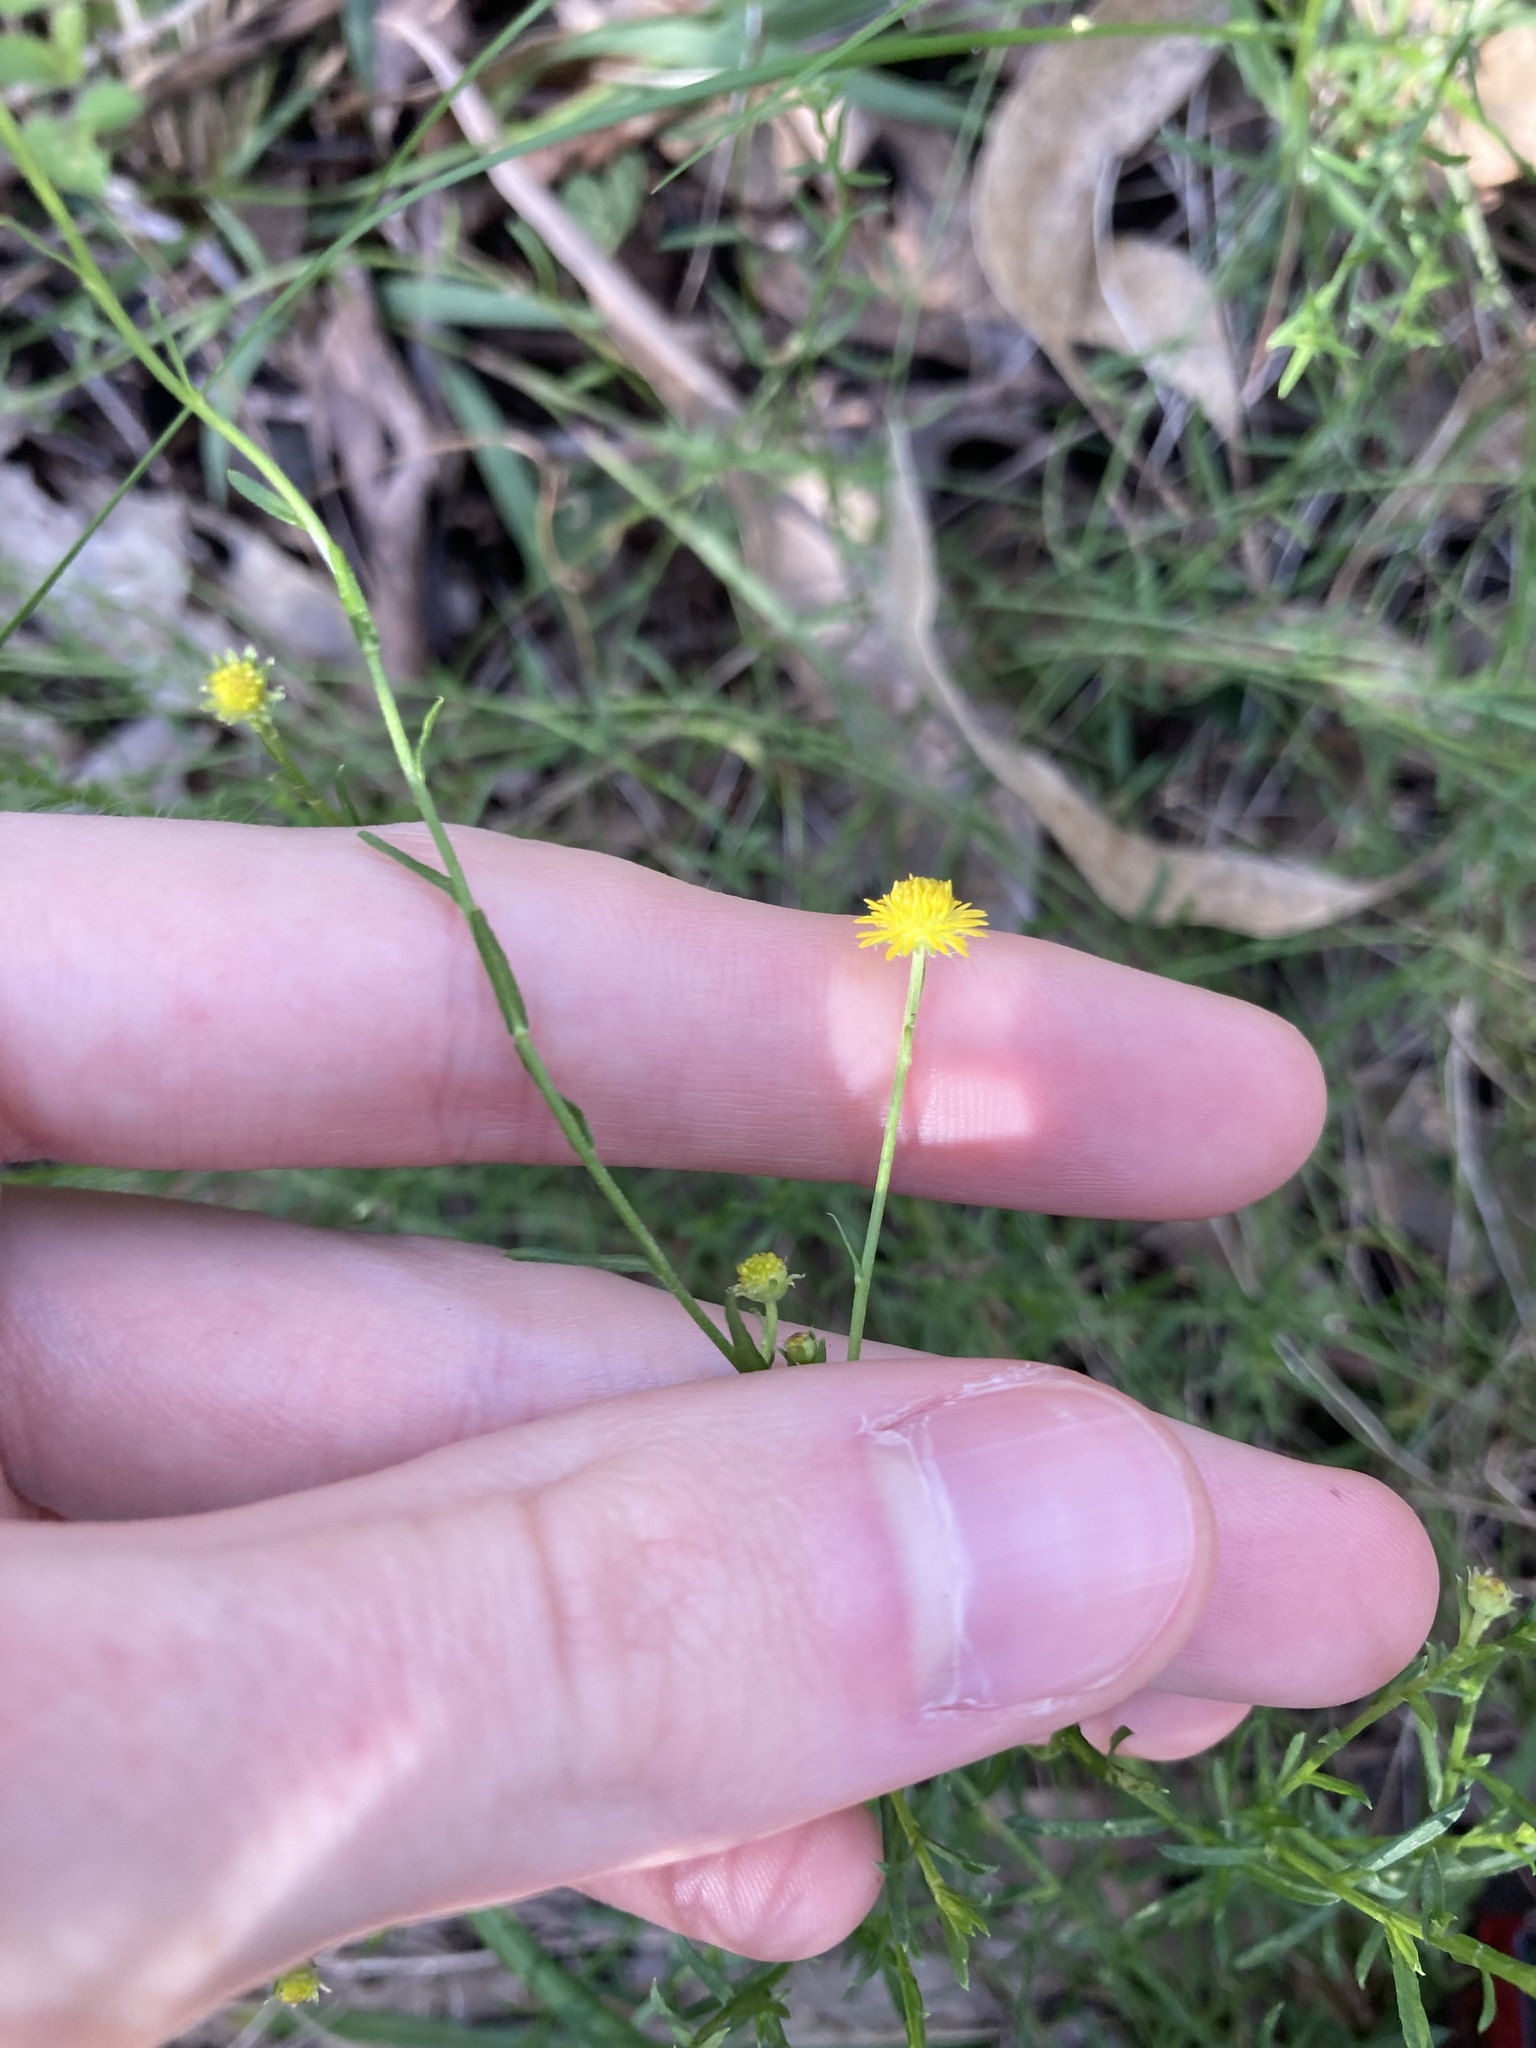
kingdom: Plantae
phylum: Tracheophyta
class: Magnoliopsida
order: Asterales
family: Asteraceae
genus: Calotis
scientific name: Calotis lappulacea
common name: Bur daisy
